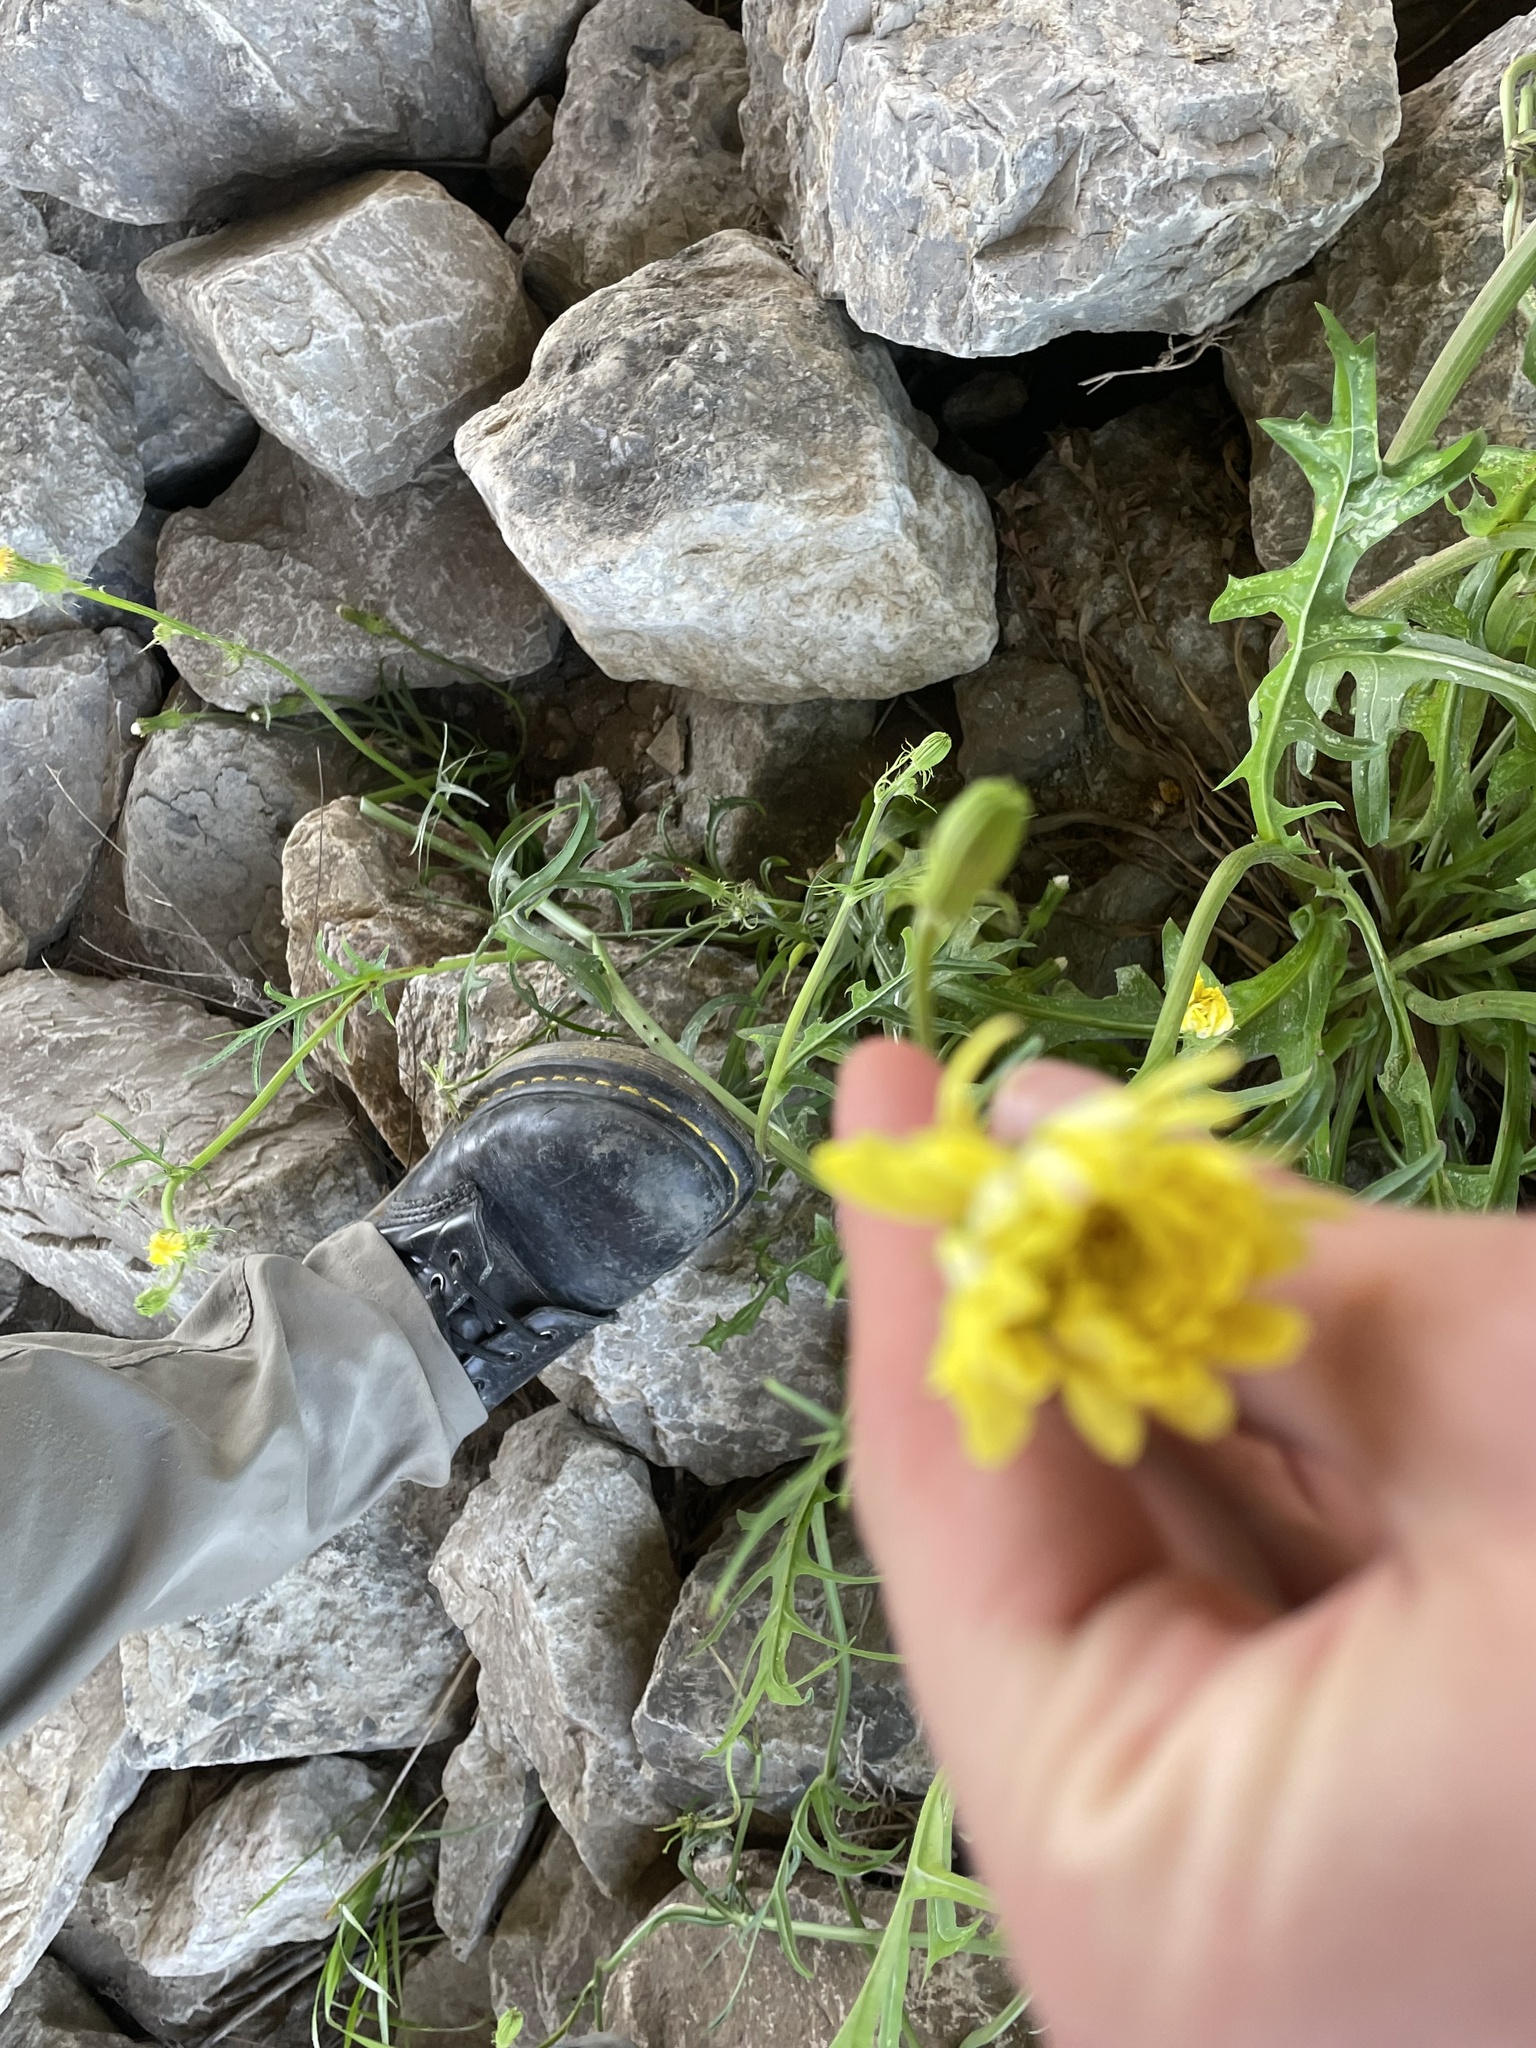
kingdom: Plantae
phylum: Tracheophyta
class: Magnoliopsida
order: Asterales
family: Asteraceae
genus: Pyrrhopappus
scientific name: Pyrrhopappus pauciflorus
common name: Texas false dandelion
